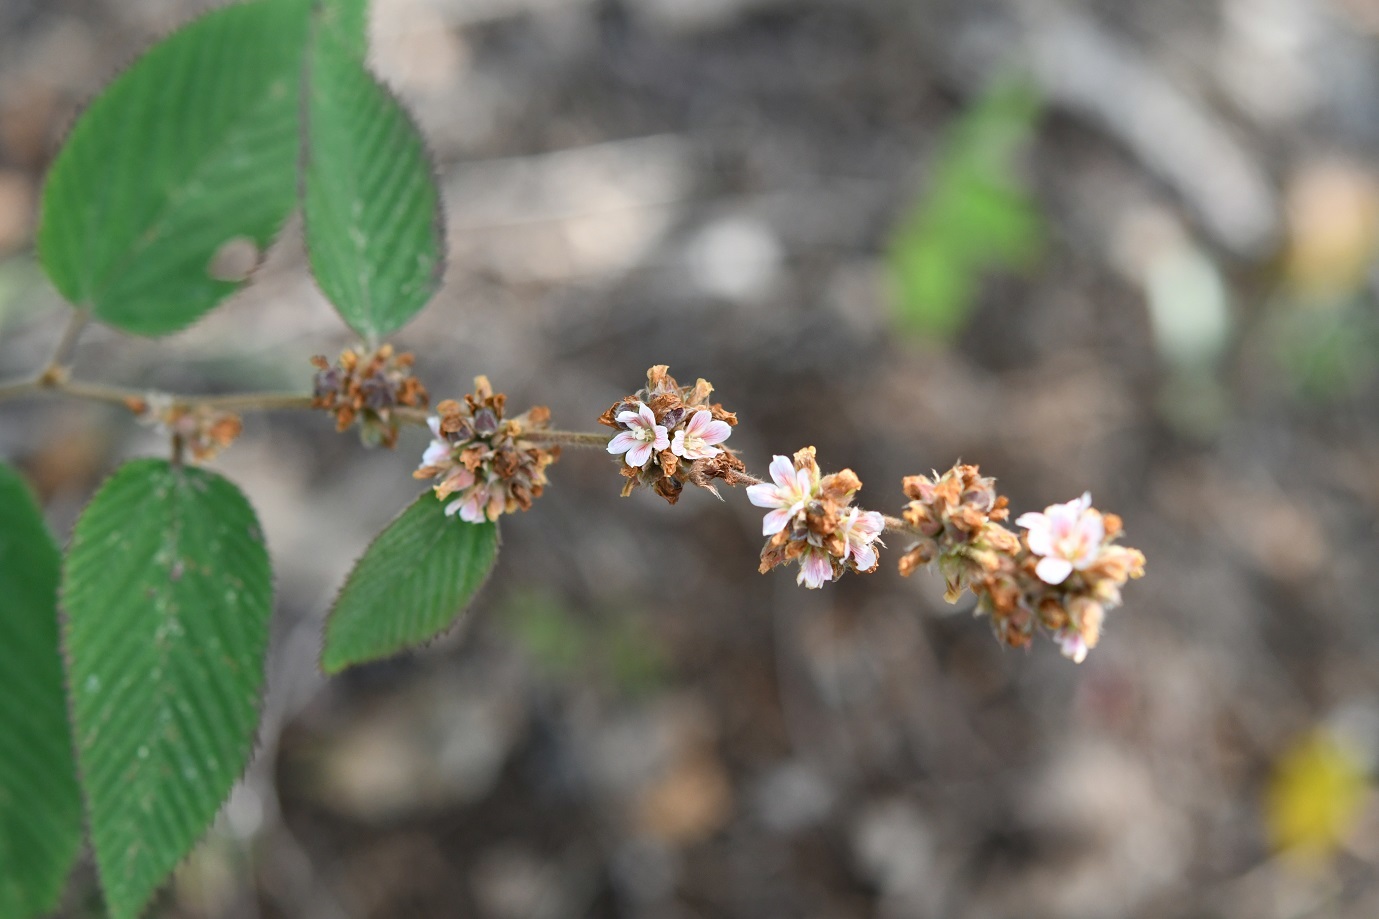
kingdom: Plantae
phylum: Tracheophyta
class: Magnoliopsida
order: Malvales
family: Malvaceae
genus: Melochia
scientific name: Melochia nodiflora
